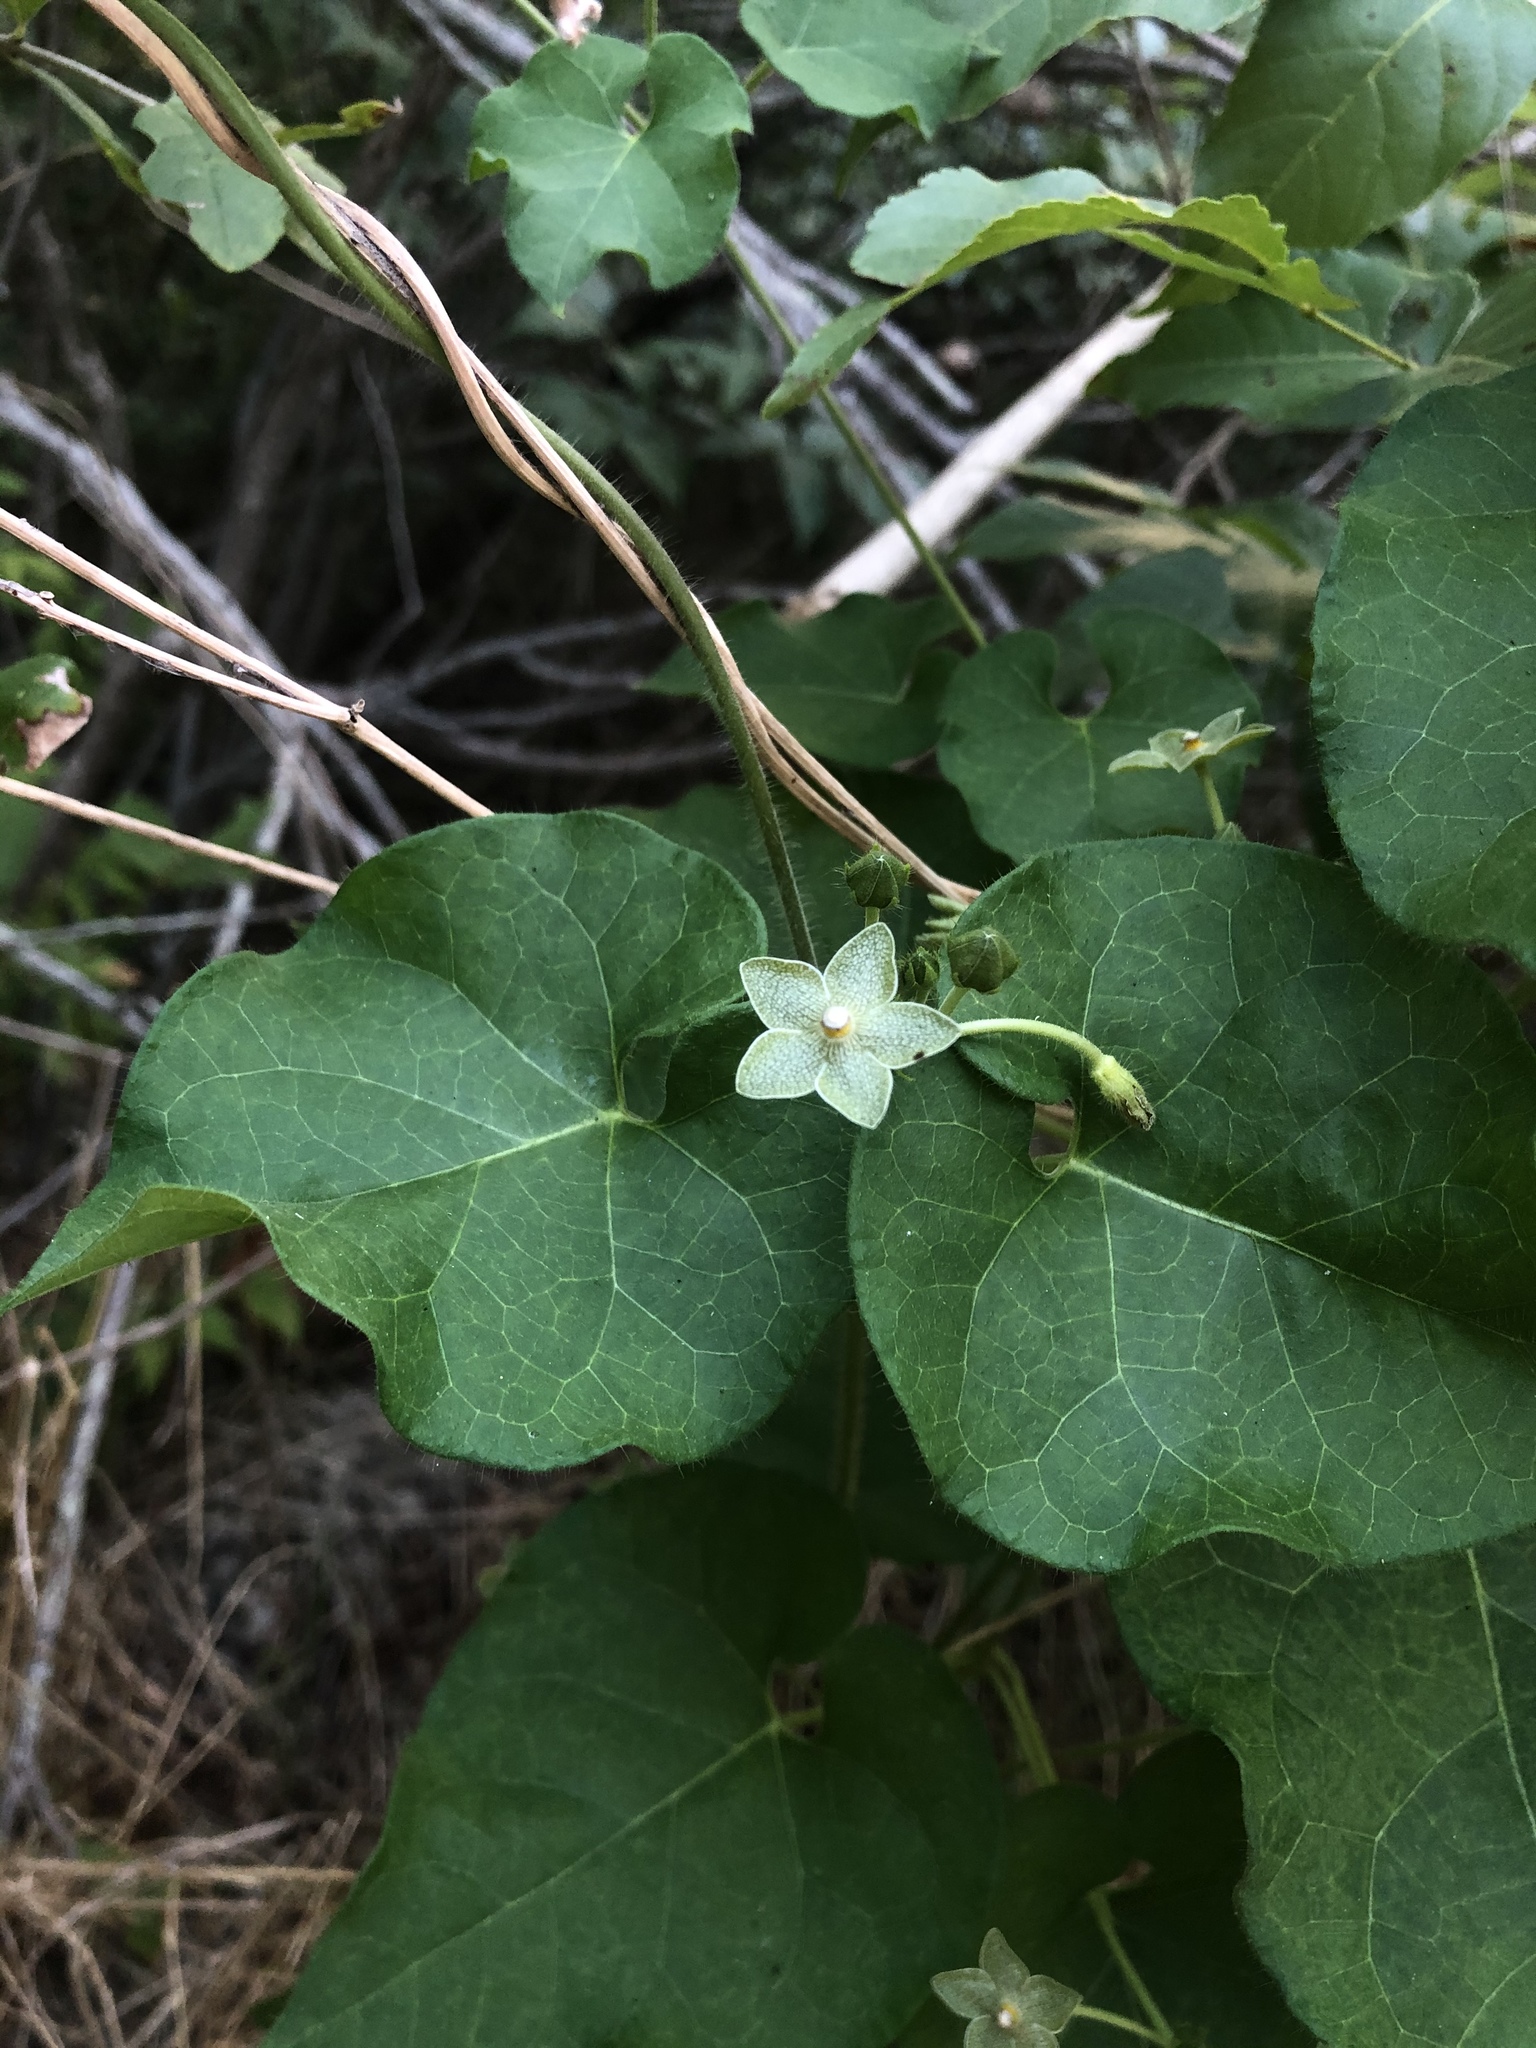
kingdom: Plantae
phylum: Tracheophyta
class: Magnoliopsida
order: Gentianales
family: Apocynaceae
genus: Dictyanthus
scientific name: Dictyanthus reticulatus
